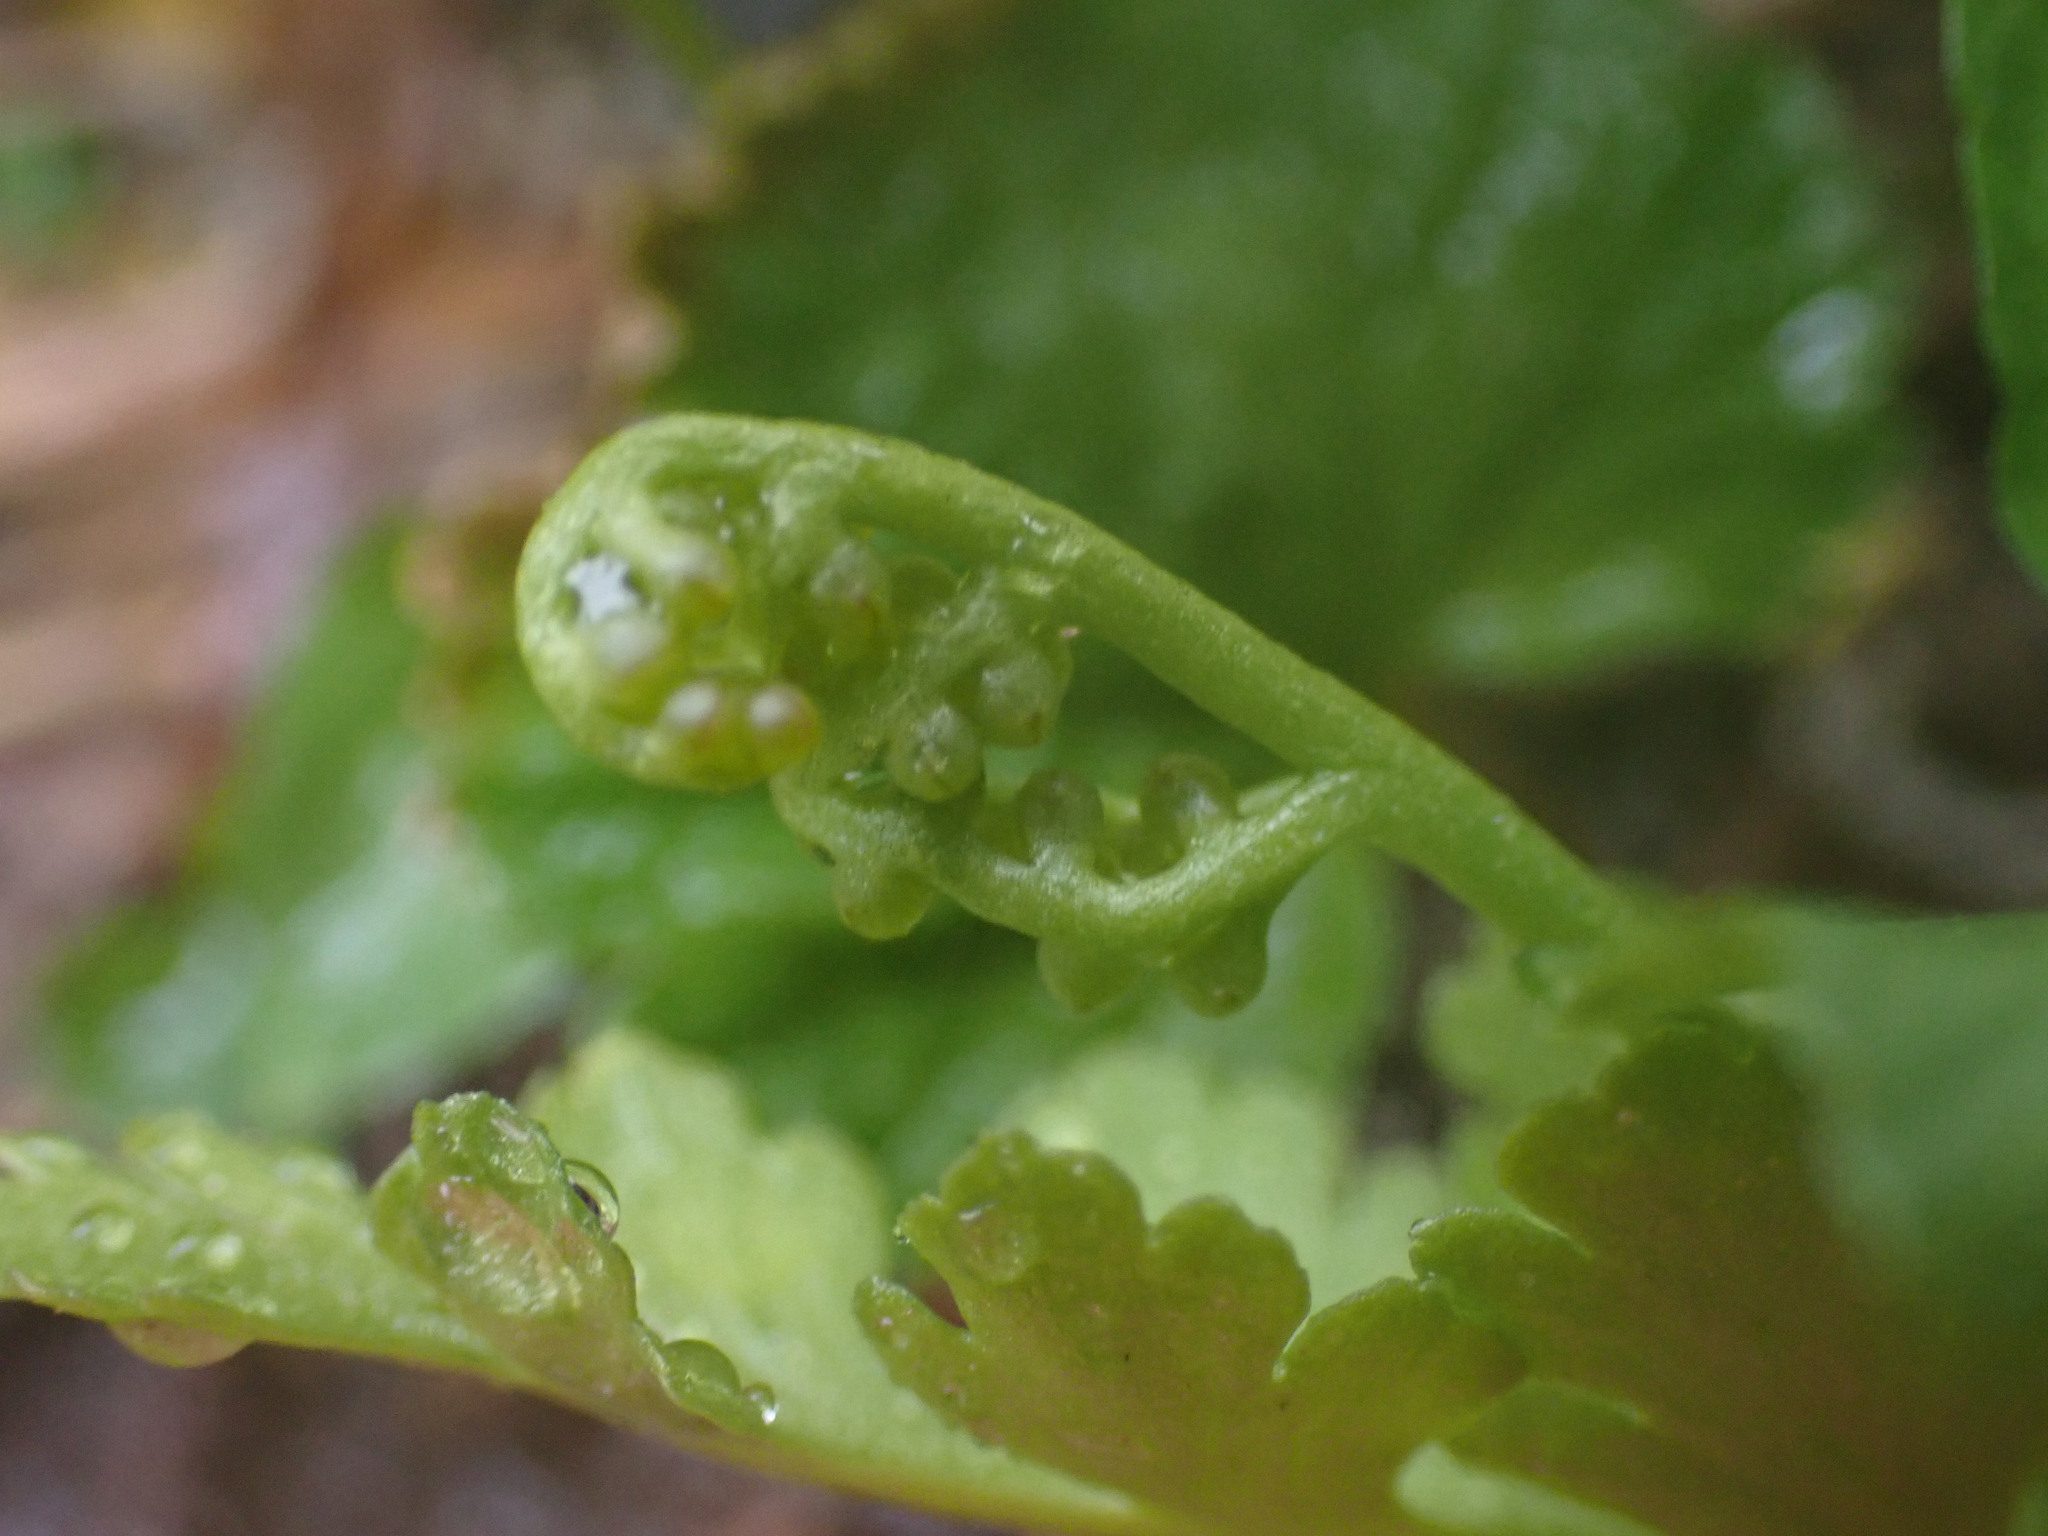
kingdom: Plantae
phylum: Tracheophyta
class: Polypodiopsida
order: Ophioglossales
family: Ophioglossaceae
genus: Botrychium
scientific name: Botrychium pinnatum
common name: Northwestern moonwort
